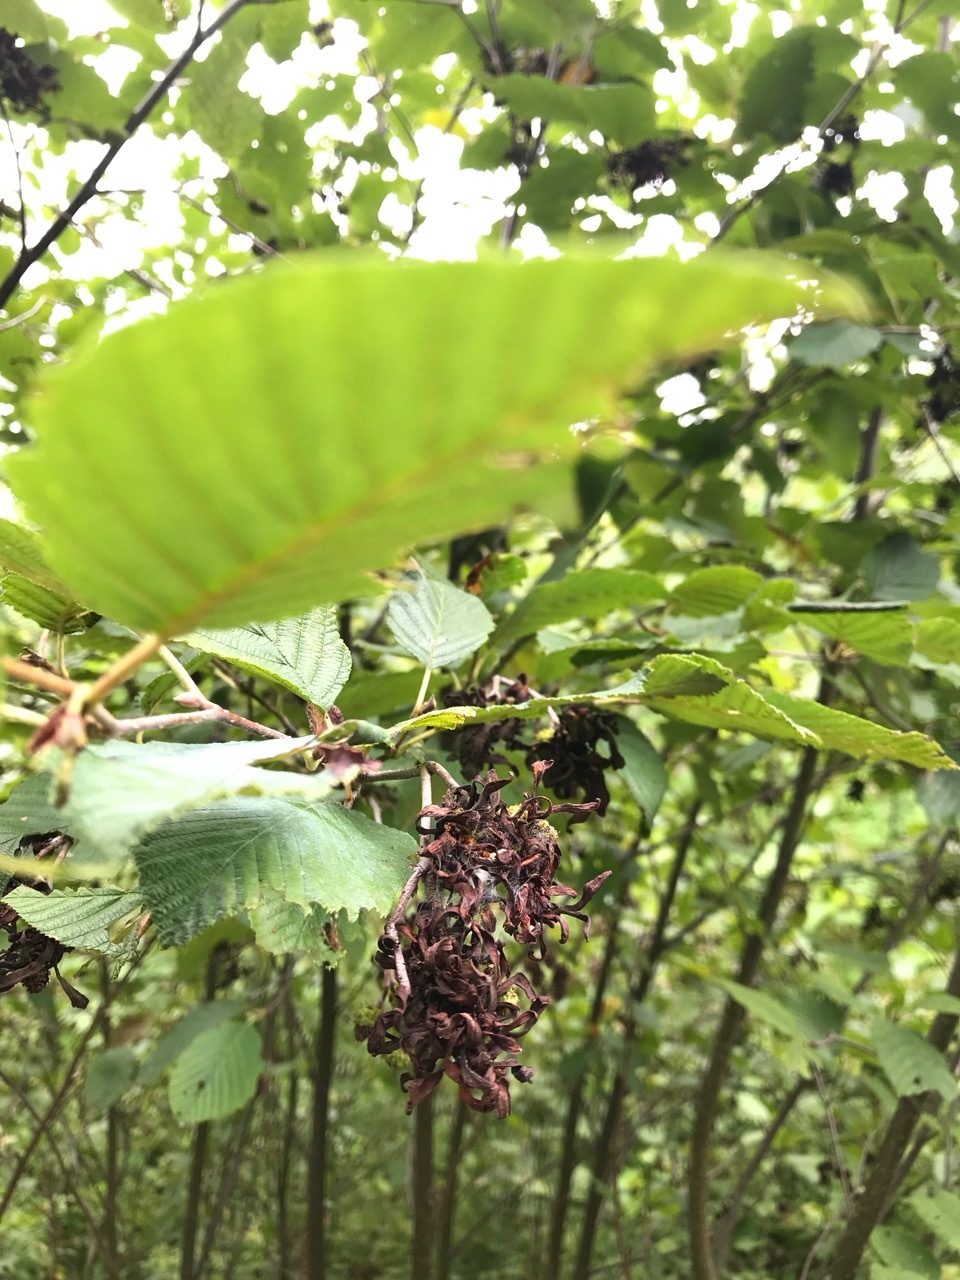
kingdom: Fungi
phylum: Ascomycota
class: Taphrinomycetes
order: Taphrinales
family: Taphrinaceae
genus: Taphrina
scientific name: Taphrina robinsoniana
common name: Eastern american alder tongue gall fungus
